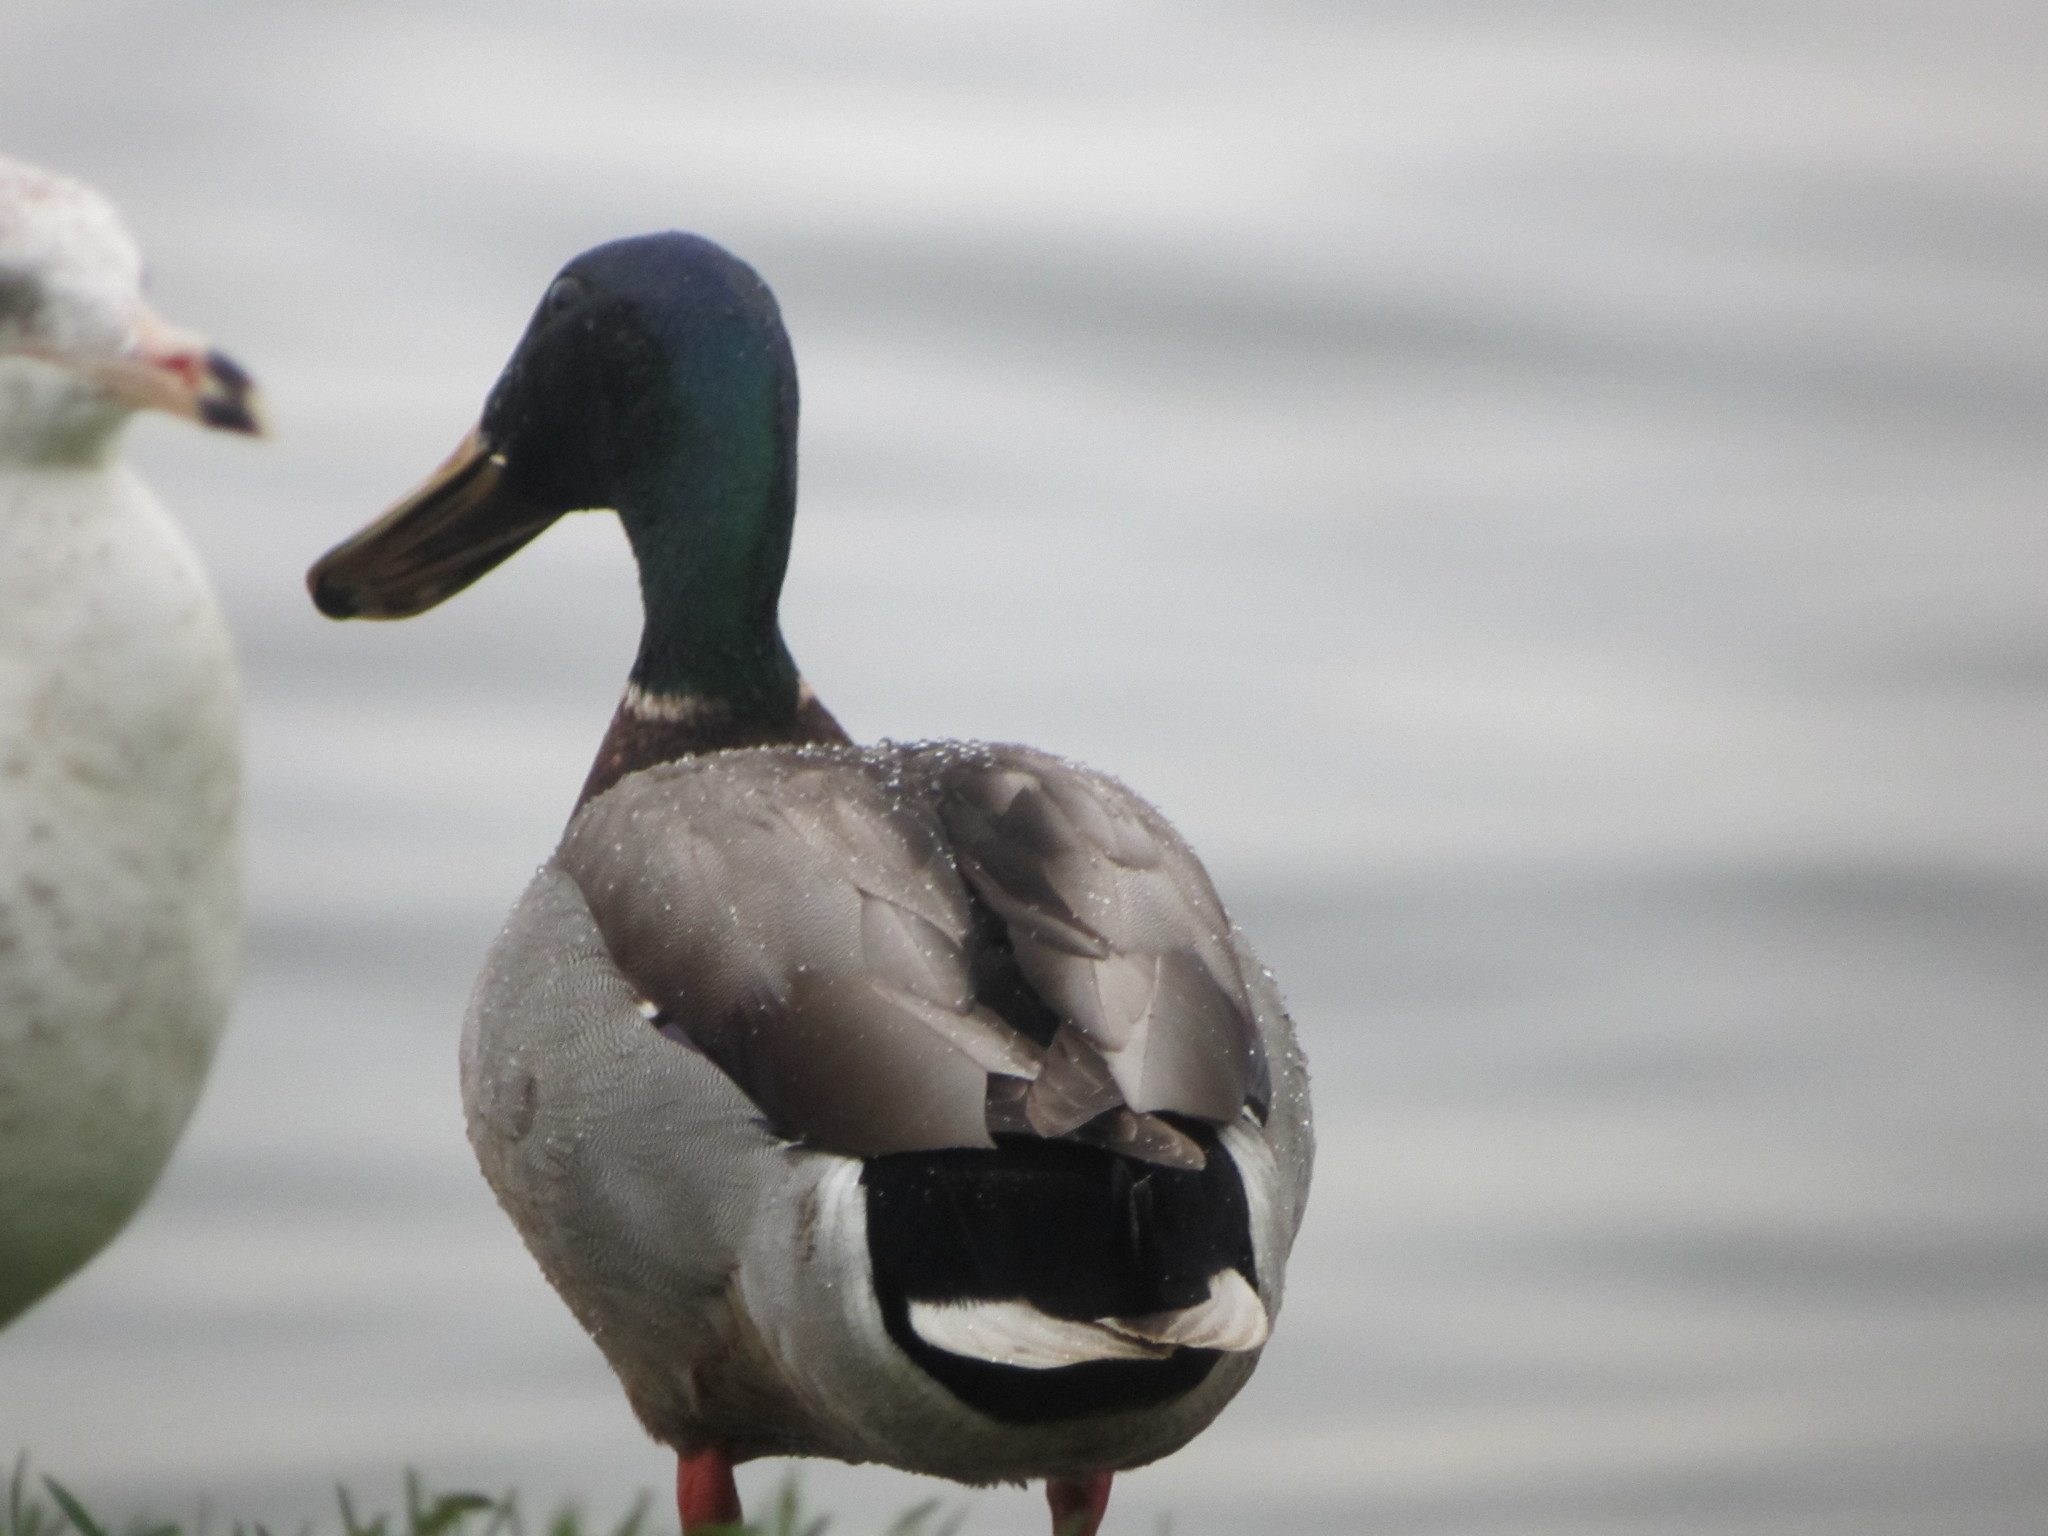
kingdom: Animalia
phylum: Chordata
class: Aves
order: Anseriformes
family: Anatidae
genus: Anas
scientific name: Anas platyrhynchos
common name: Mallard
